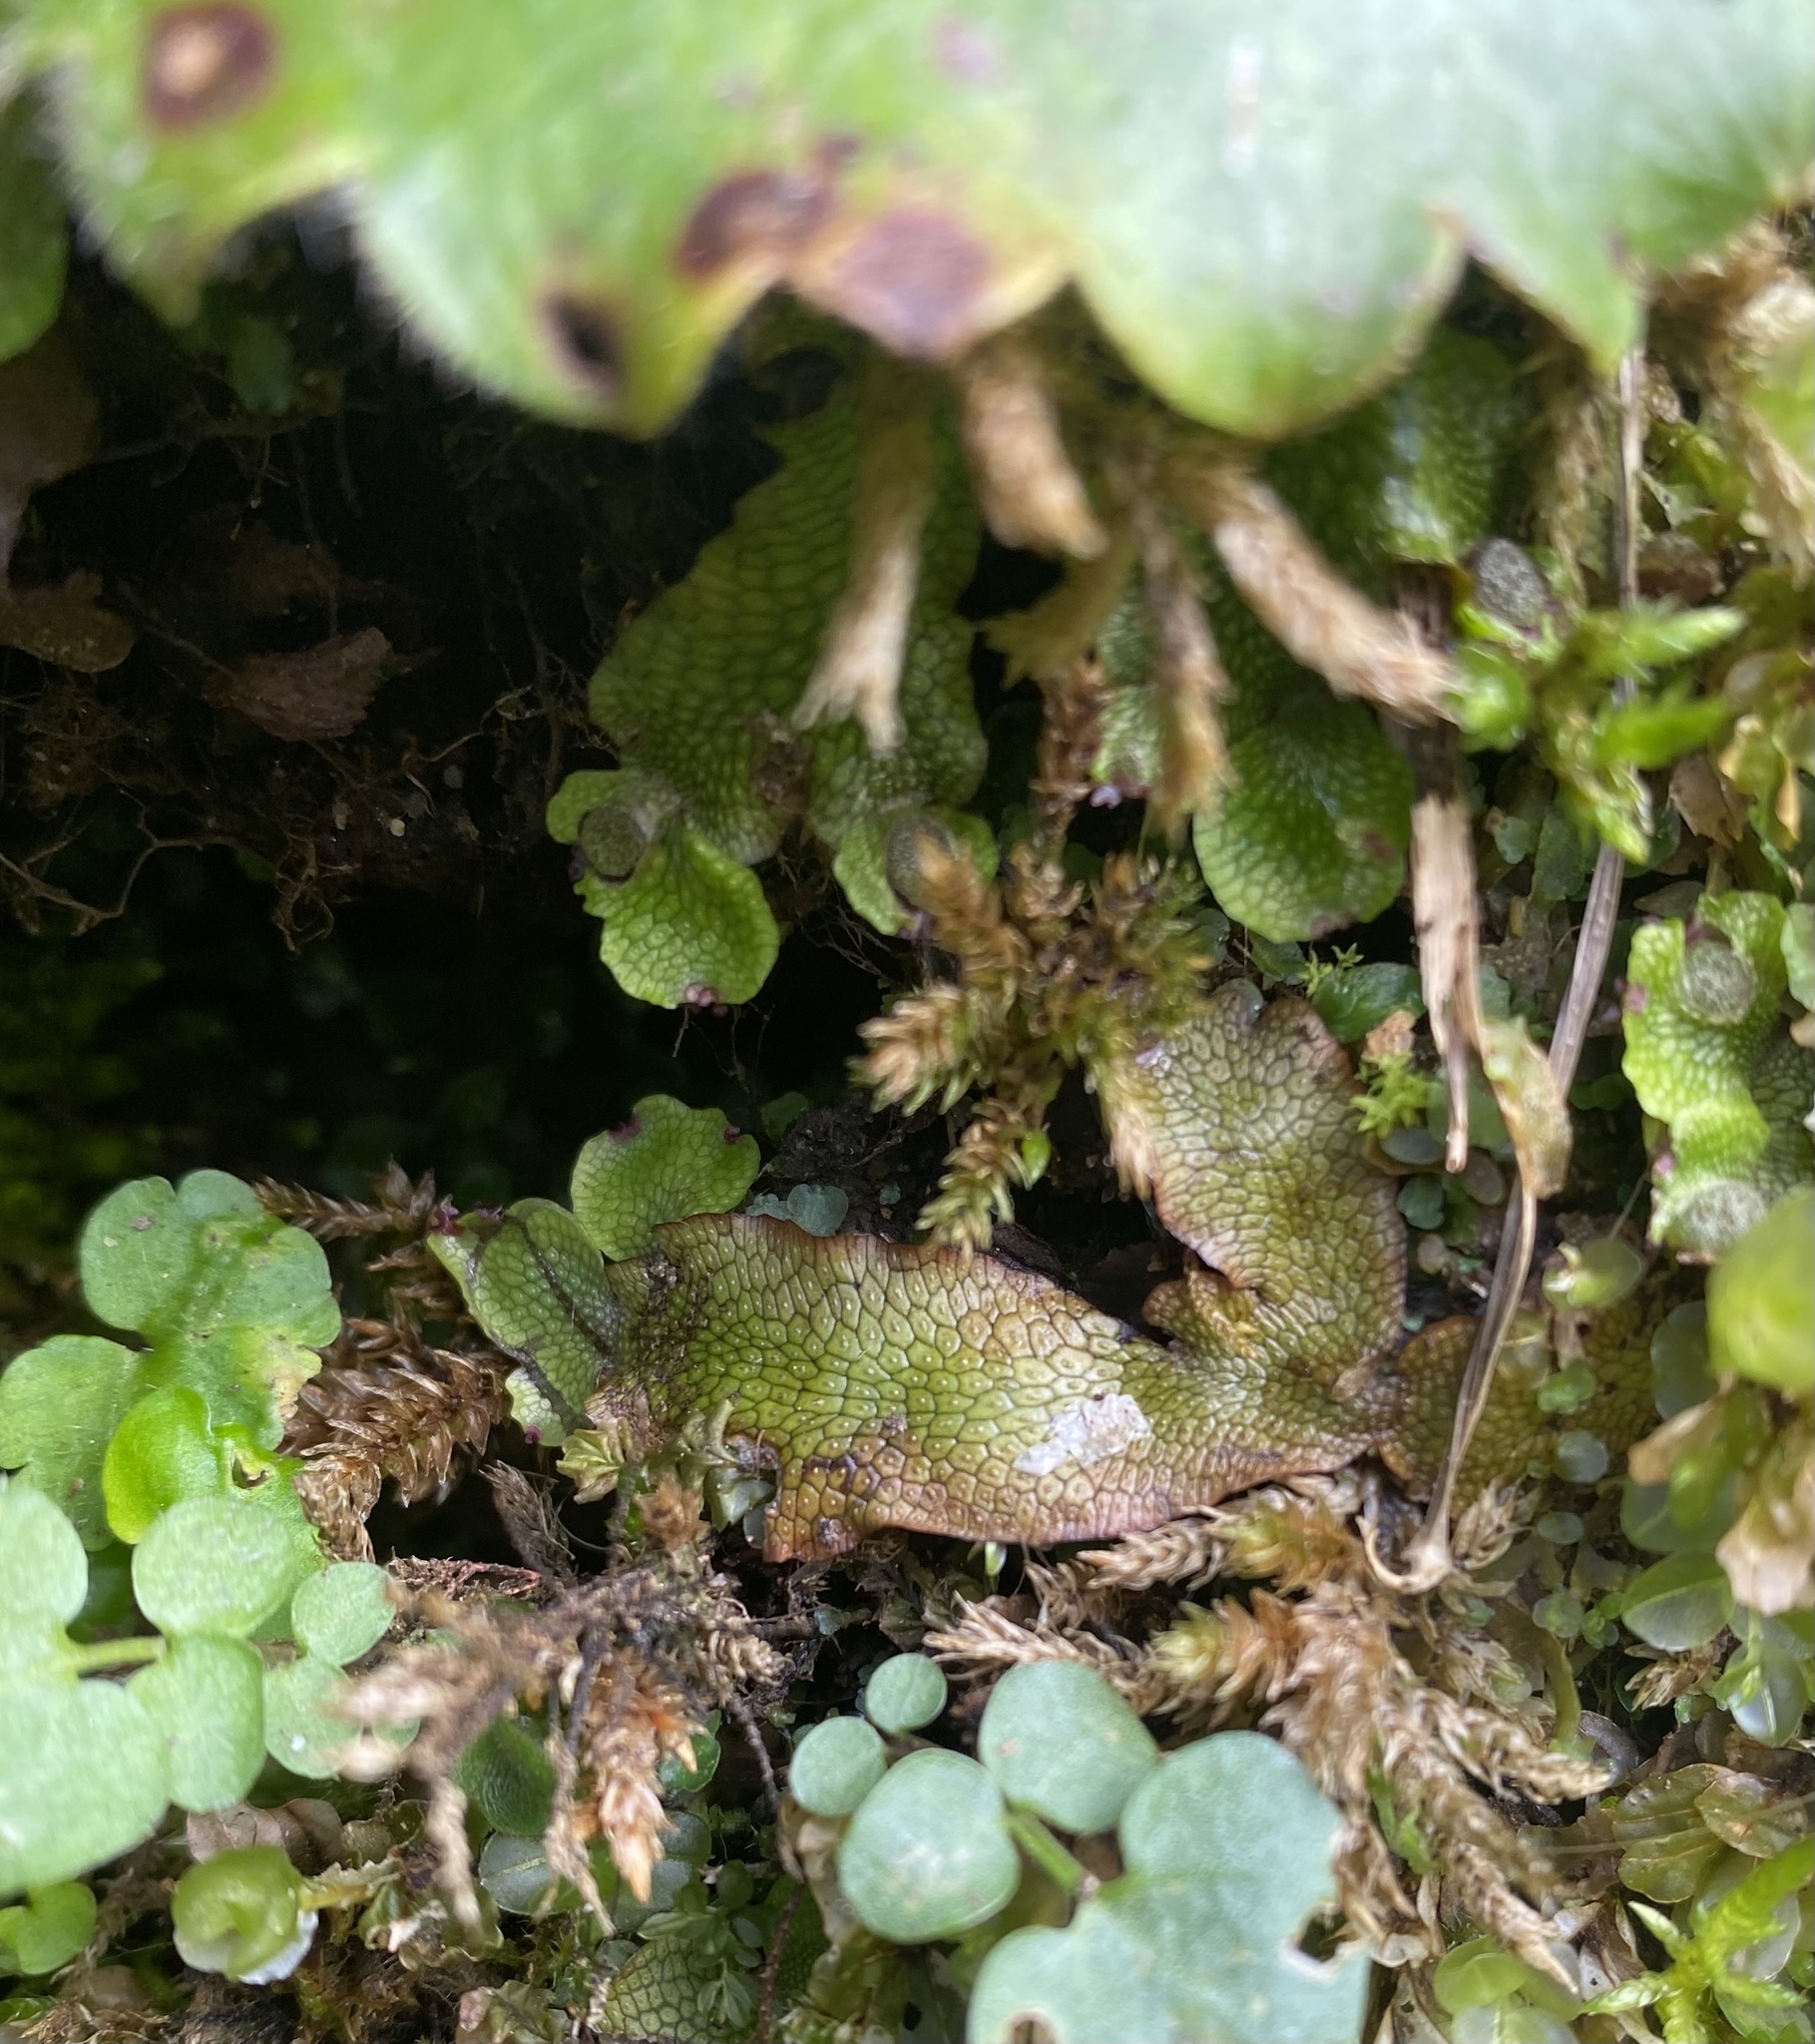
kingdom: Plantae
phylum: Marchantiophyta
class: Marchantiopsida
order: Marchantiales
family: Conocephalaceae
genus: Conocephalum
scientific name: Conocephalum salebrosum
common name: Cat-tongue liverwort
